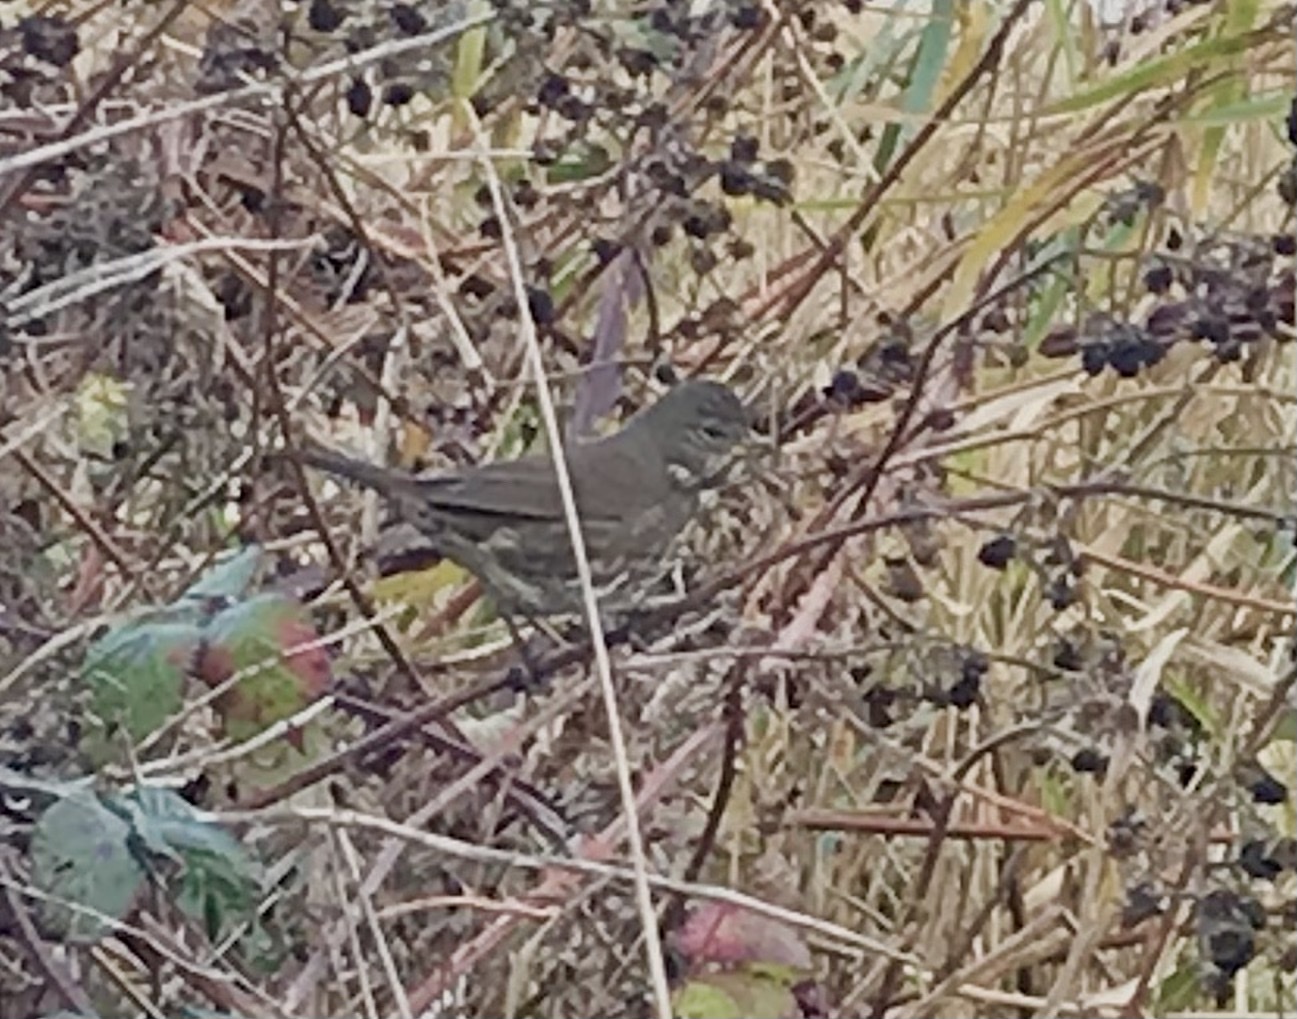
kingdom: Animalia
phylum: Chordata
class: Aves
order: Passeriformes
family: Passerellidae
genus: Passerella
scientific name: Passerella iliaca
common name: Fox sparrow
